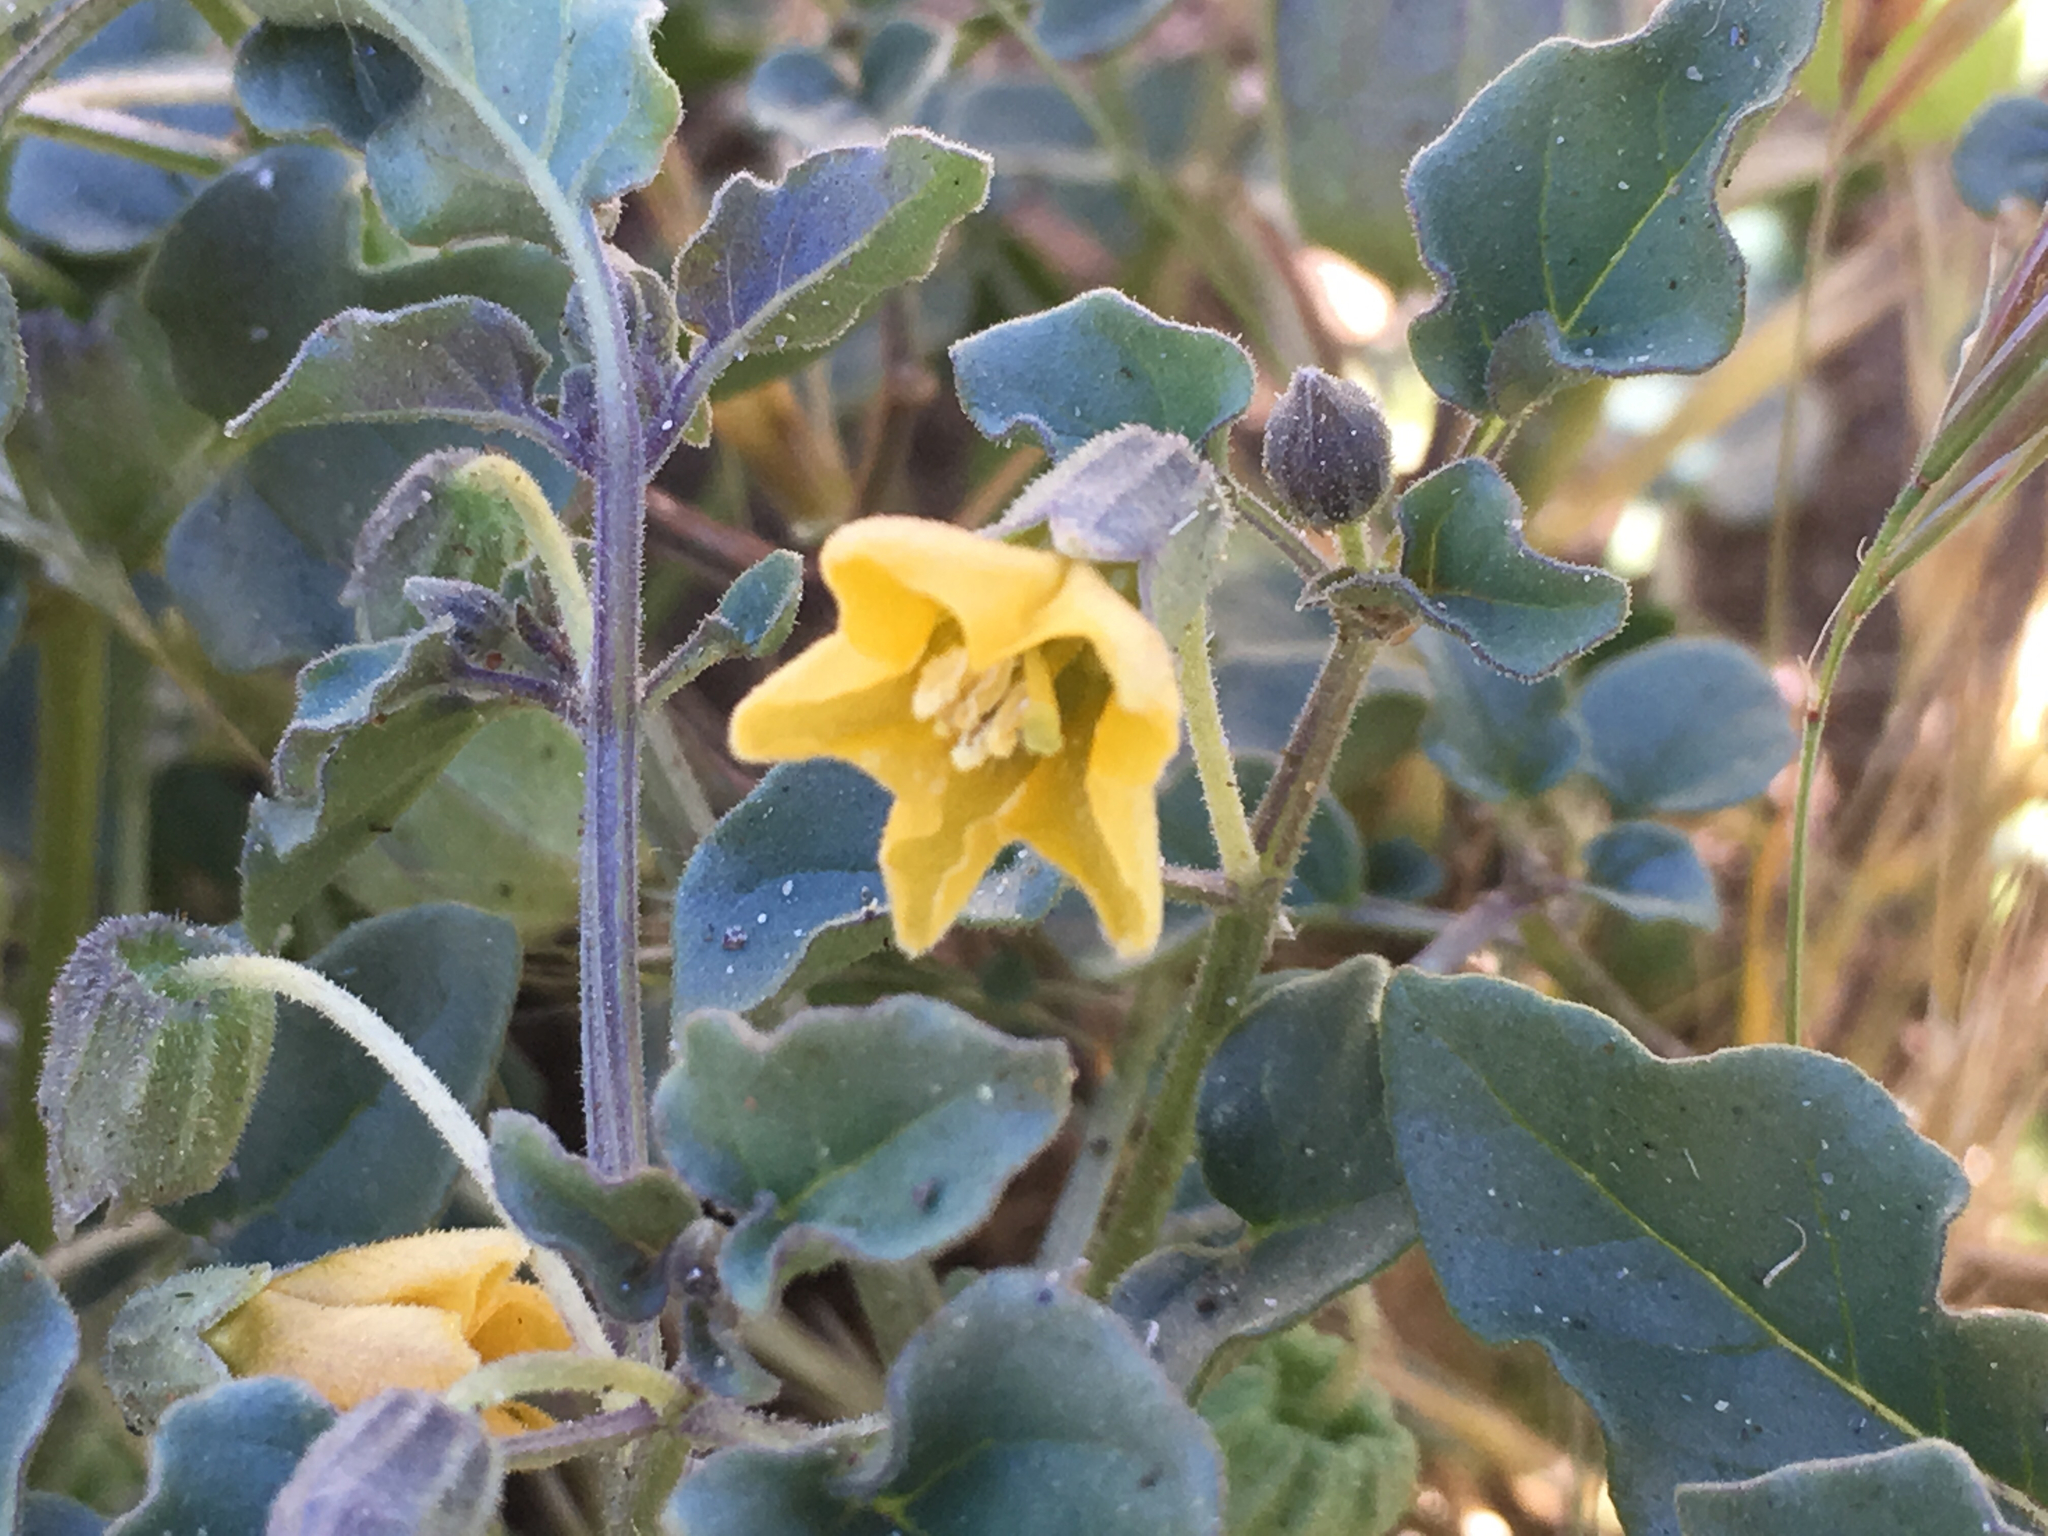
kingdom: Plantae
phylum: Tracheophyta
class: Magnoliopsida
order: Solanales
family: Solanaceae
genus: Physalis
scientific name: Physalis crassifolia
